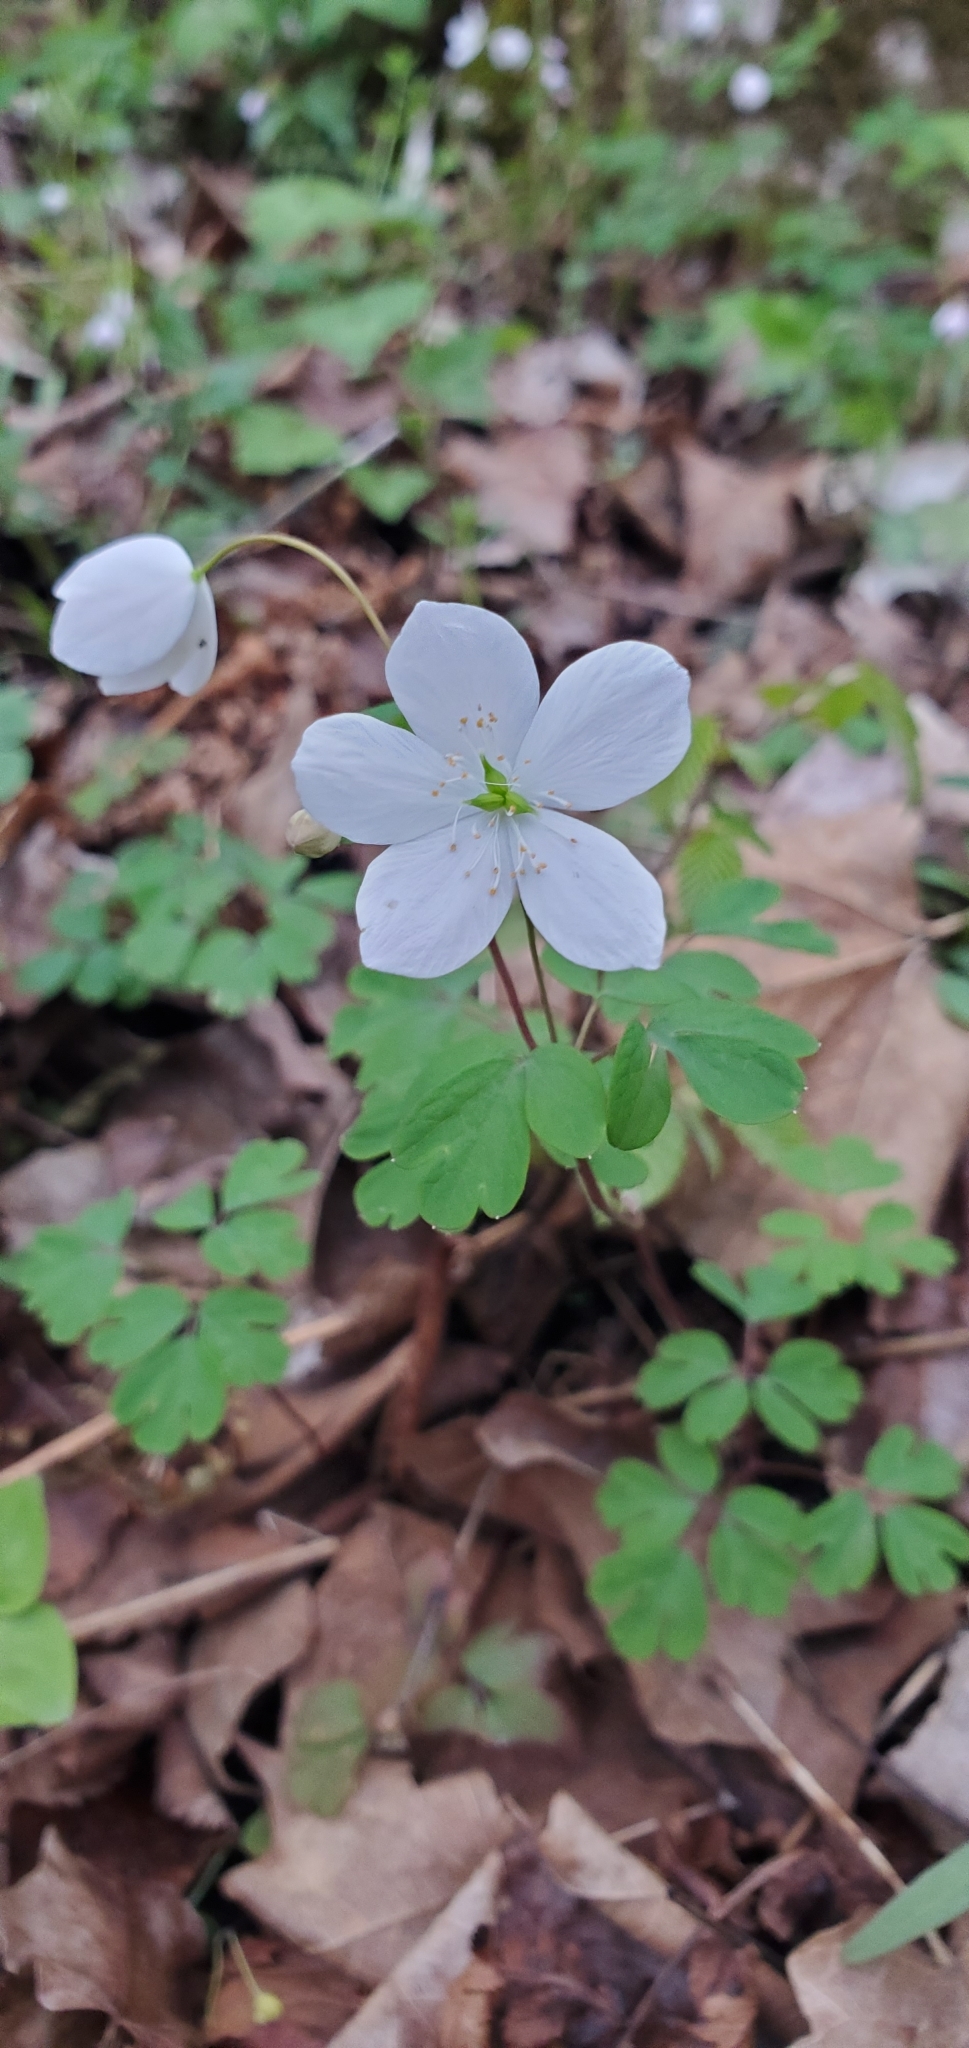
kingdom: Plantae
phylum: Tracheophyta
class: Magnoliopsida
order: Ranunculales
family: Ranunculaceae
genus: Enemion
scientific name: Enemion biternatum
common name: Eastern false rue-anemone
